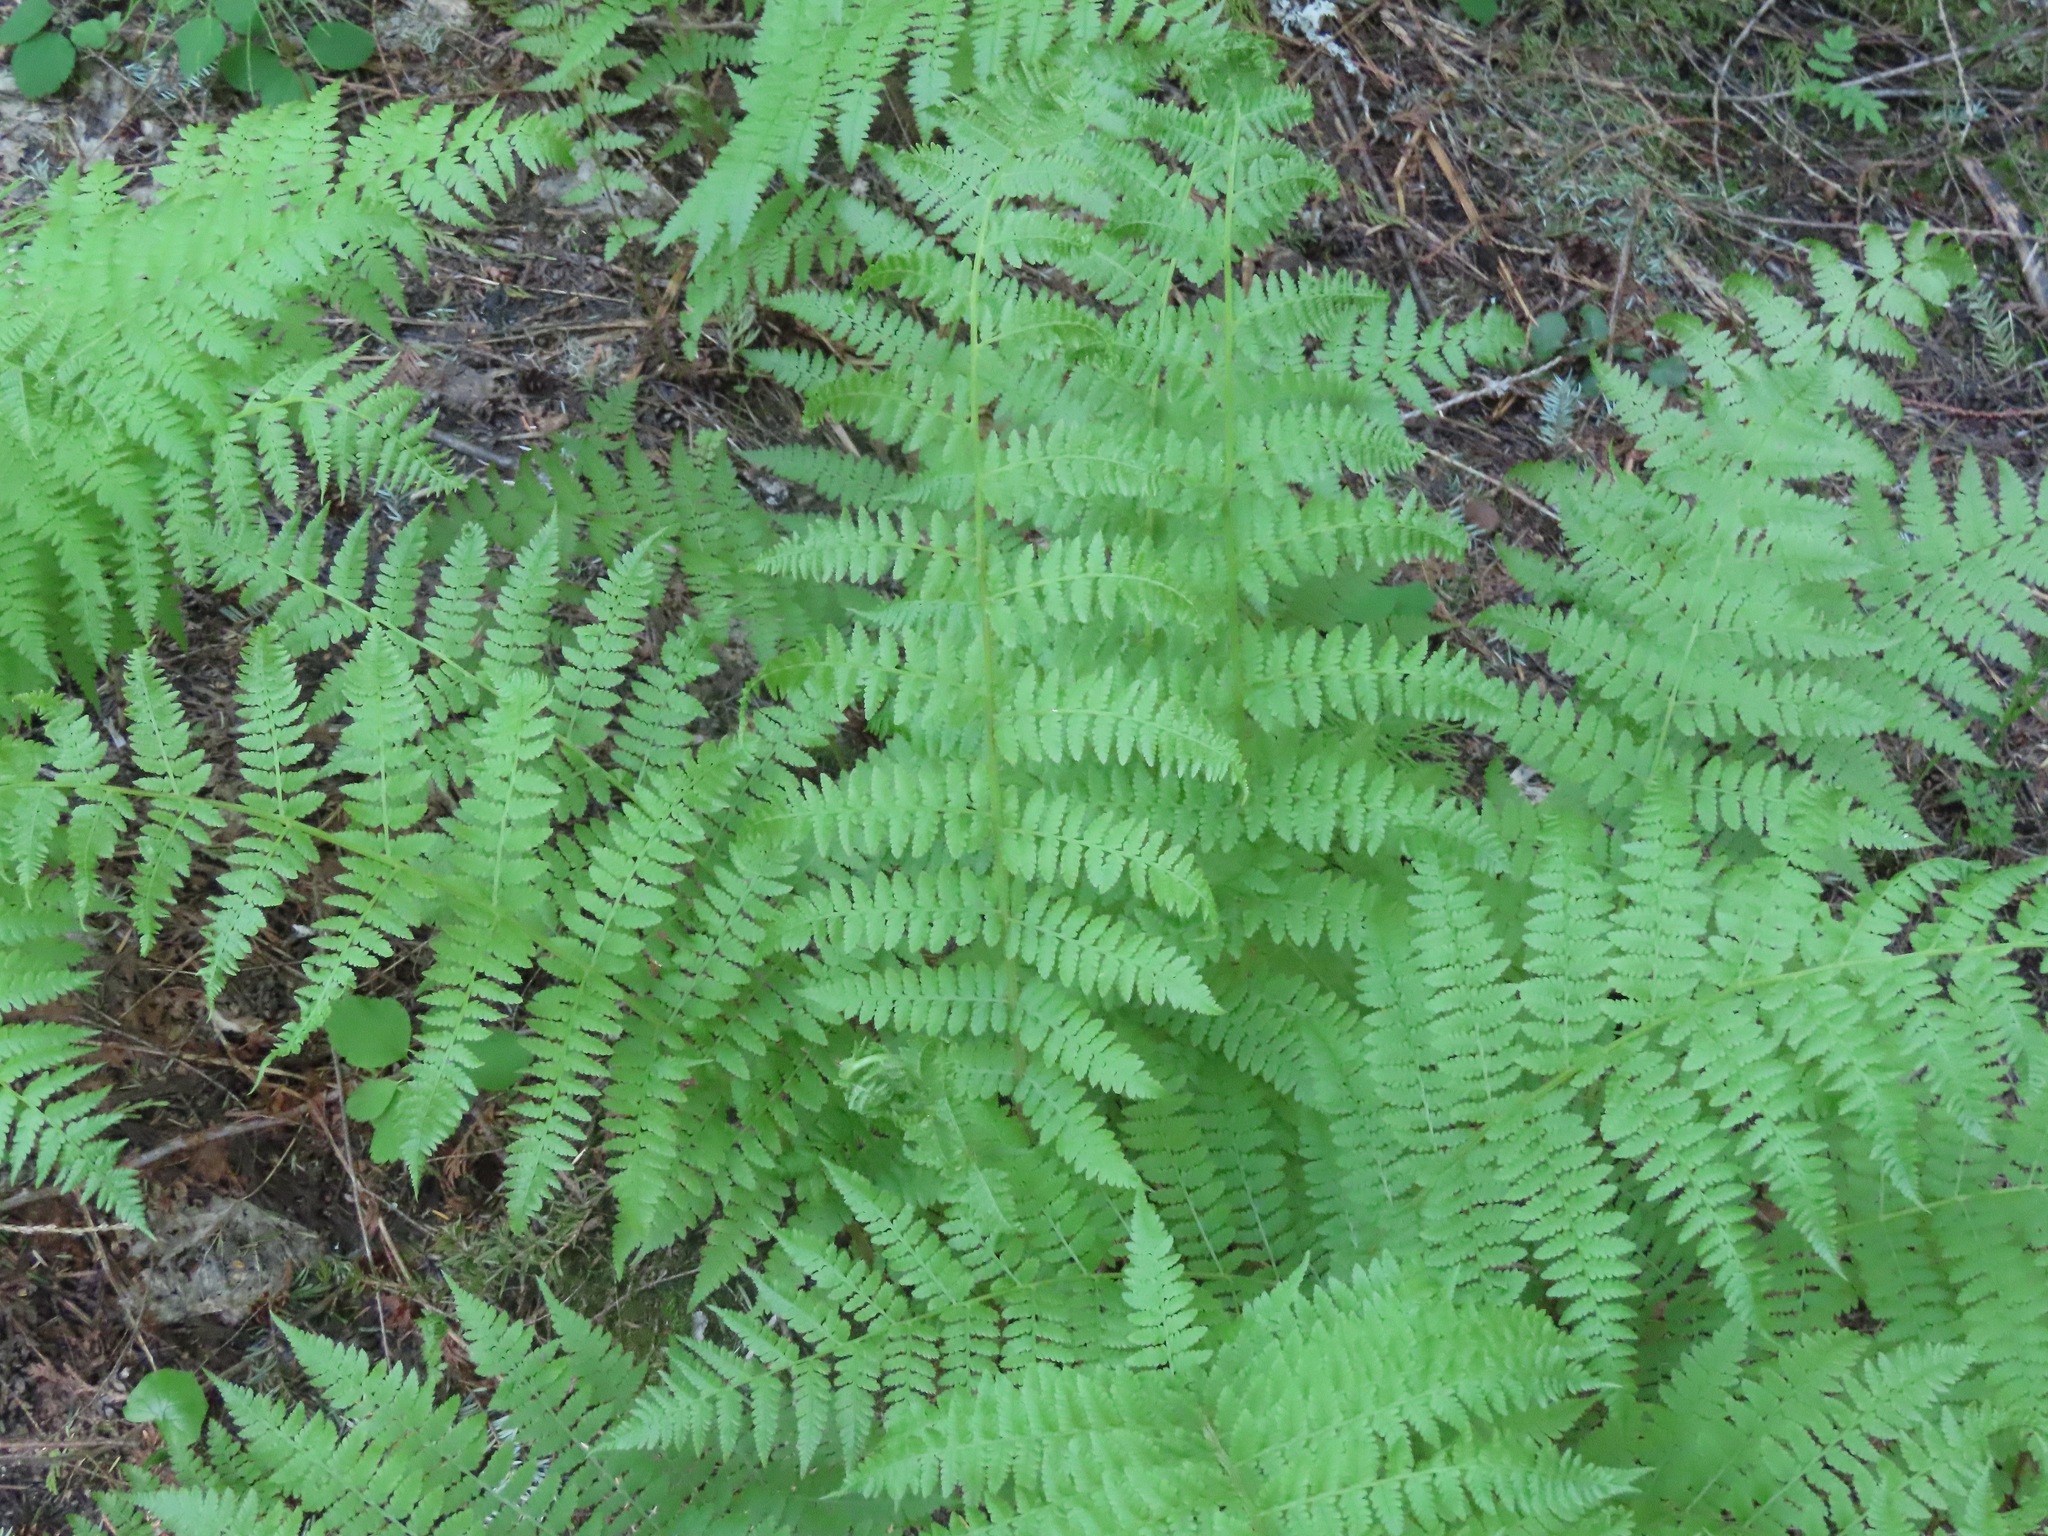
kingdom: Plantae
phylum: Tracheophyta
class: Polypodiopsida
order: Polypodiales
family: Athyriaceae
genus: Athyrium
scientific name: Athyrium filix-femina
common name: Lady fern
